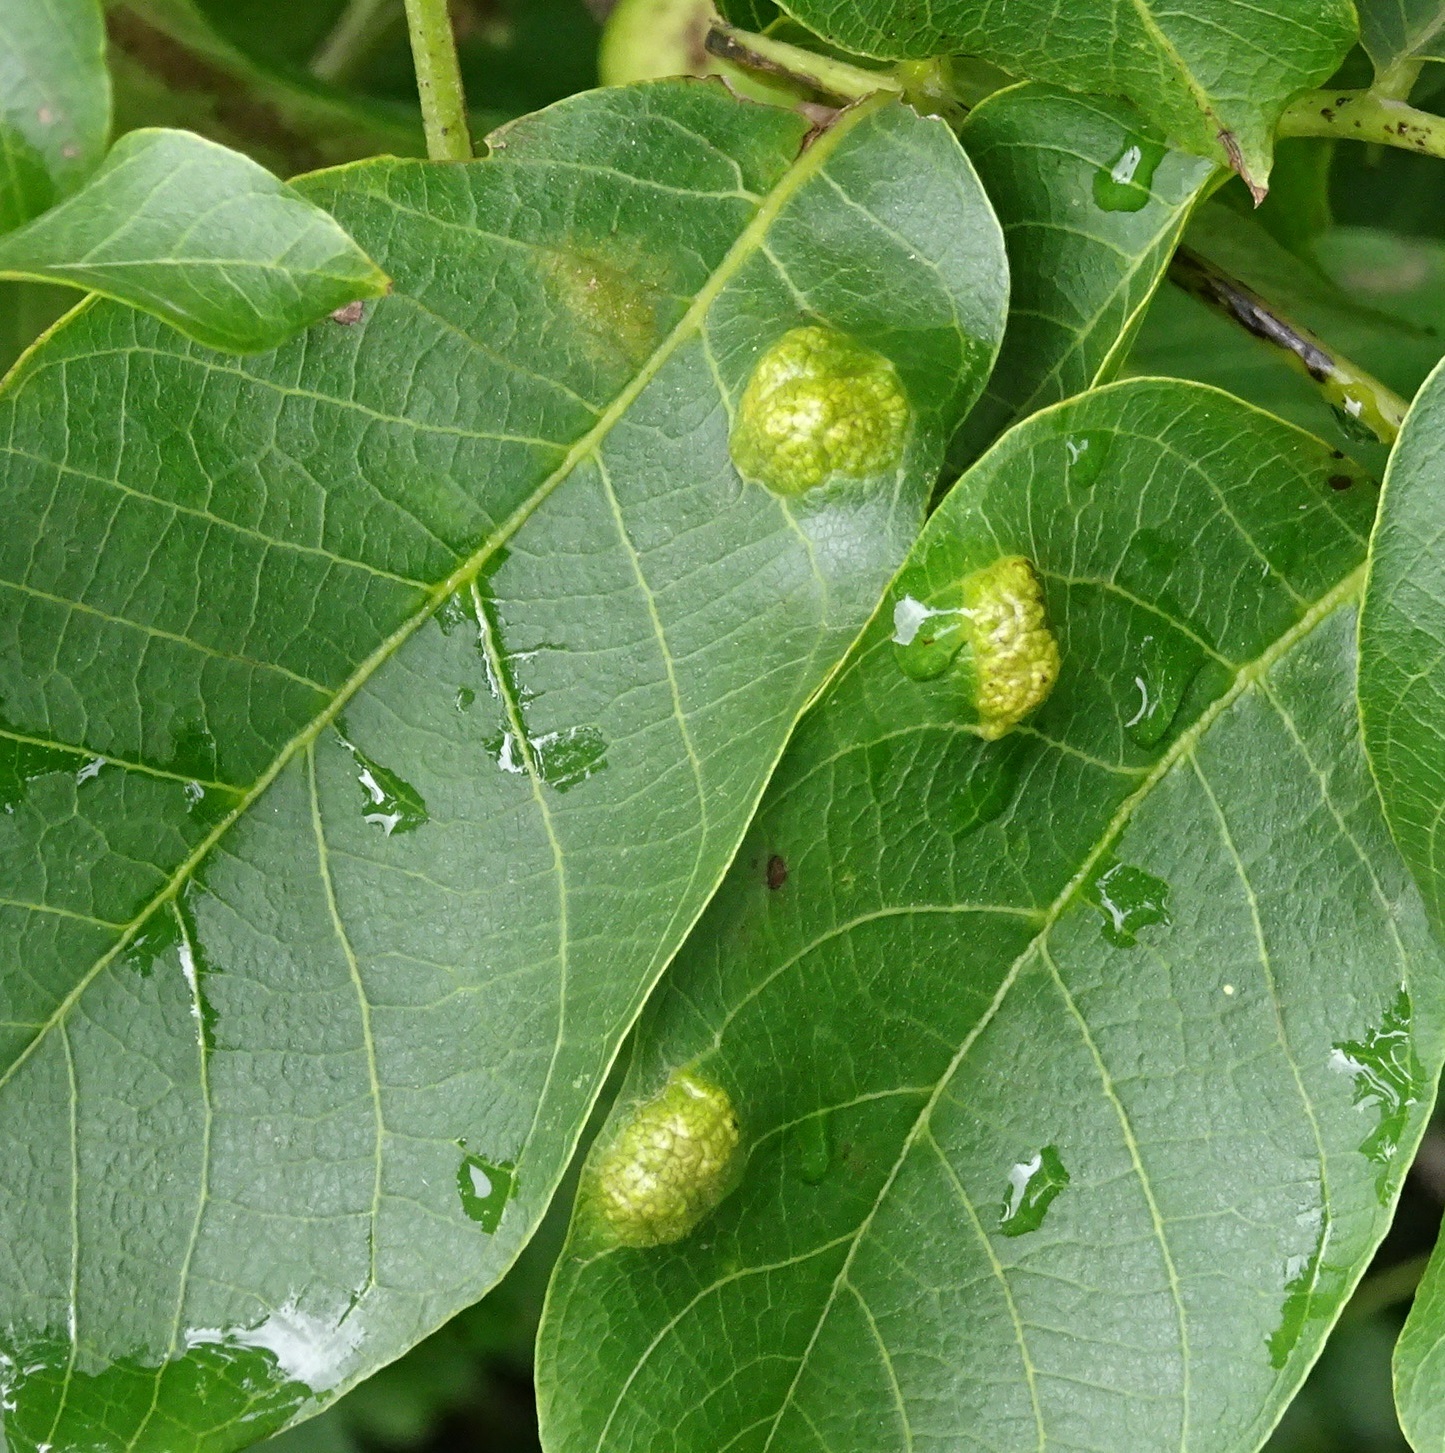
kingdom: Animalia
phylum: Arthropoda
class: Arachnida
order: Trombidiformes
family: Eriophyidae
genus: Aceria
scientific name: Aceria erinea
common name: Persian walnut erineum mite
